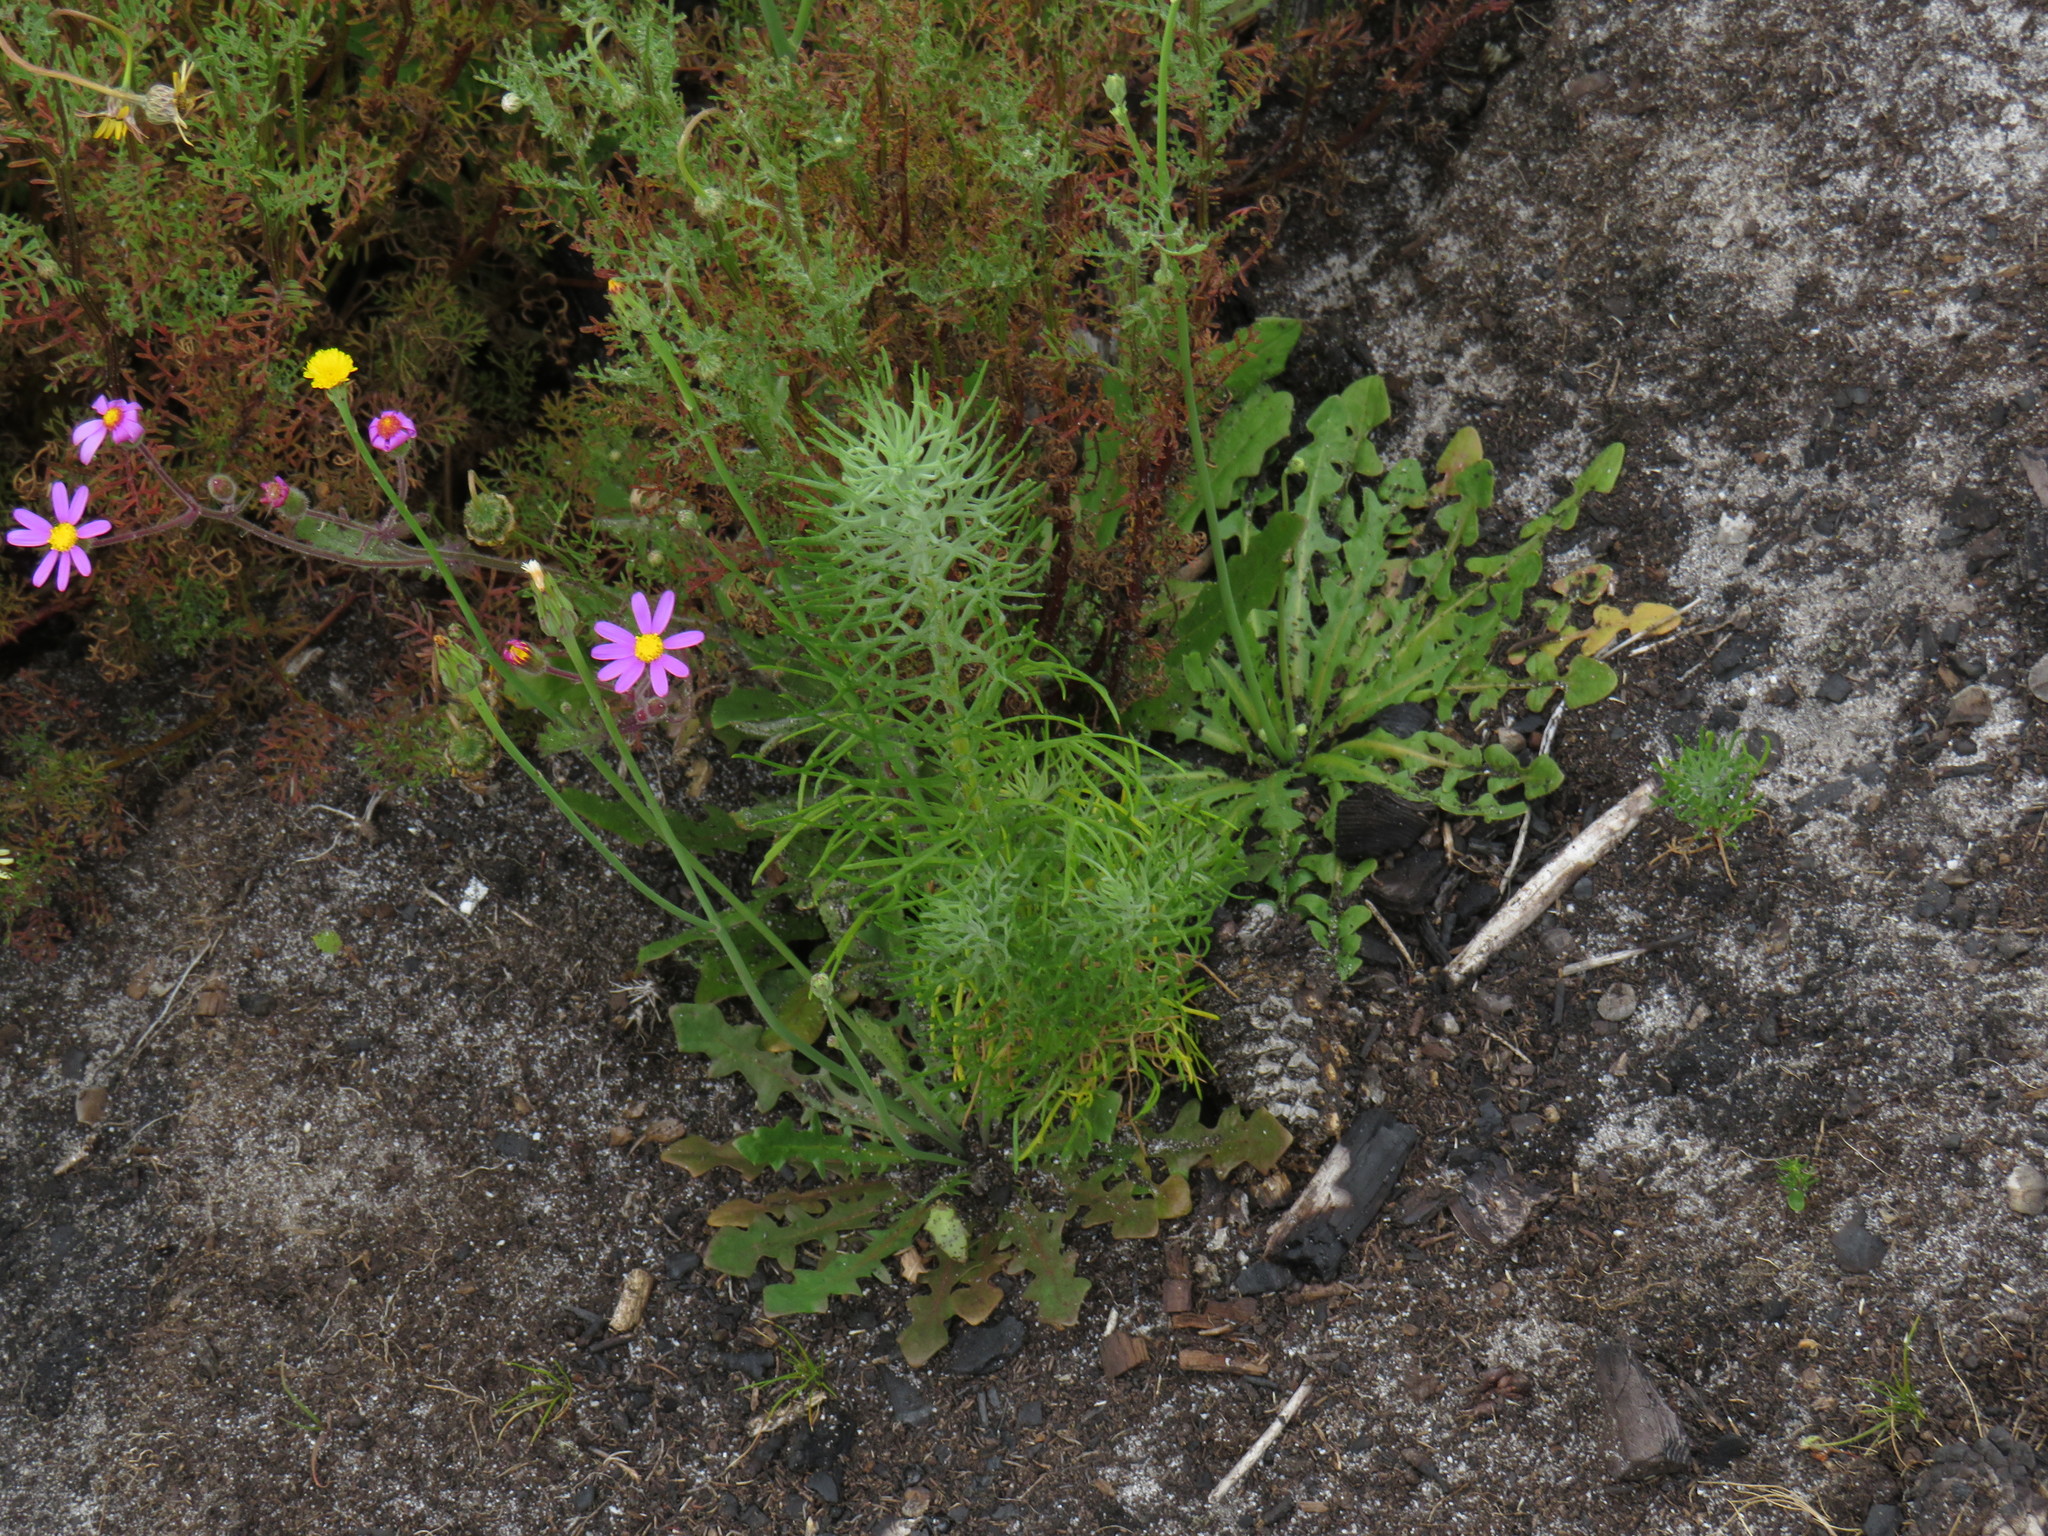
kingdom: Plantae
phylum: Tracheophyta
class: Magnoliopsida
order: Asterales
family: Asteraceae
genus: Athanasia
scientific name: Athanasia crithmifolia
